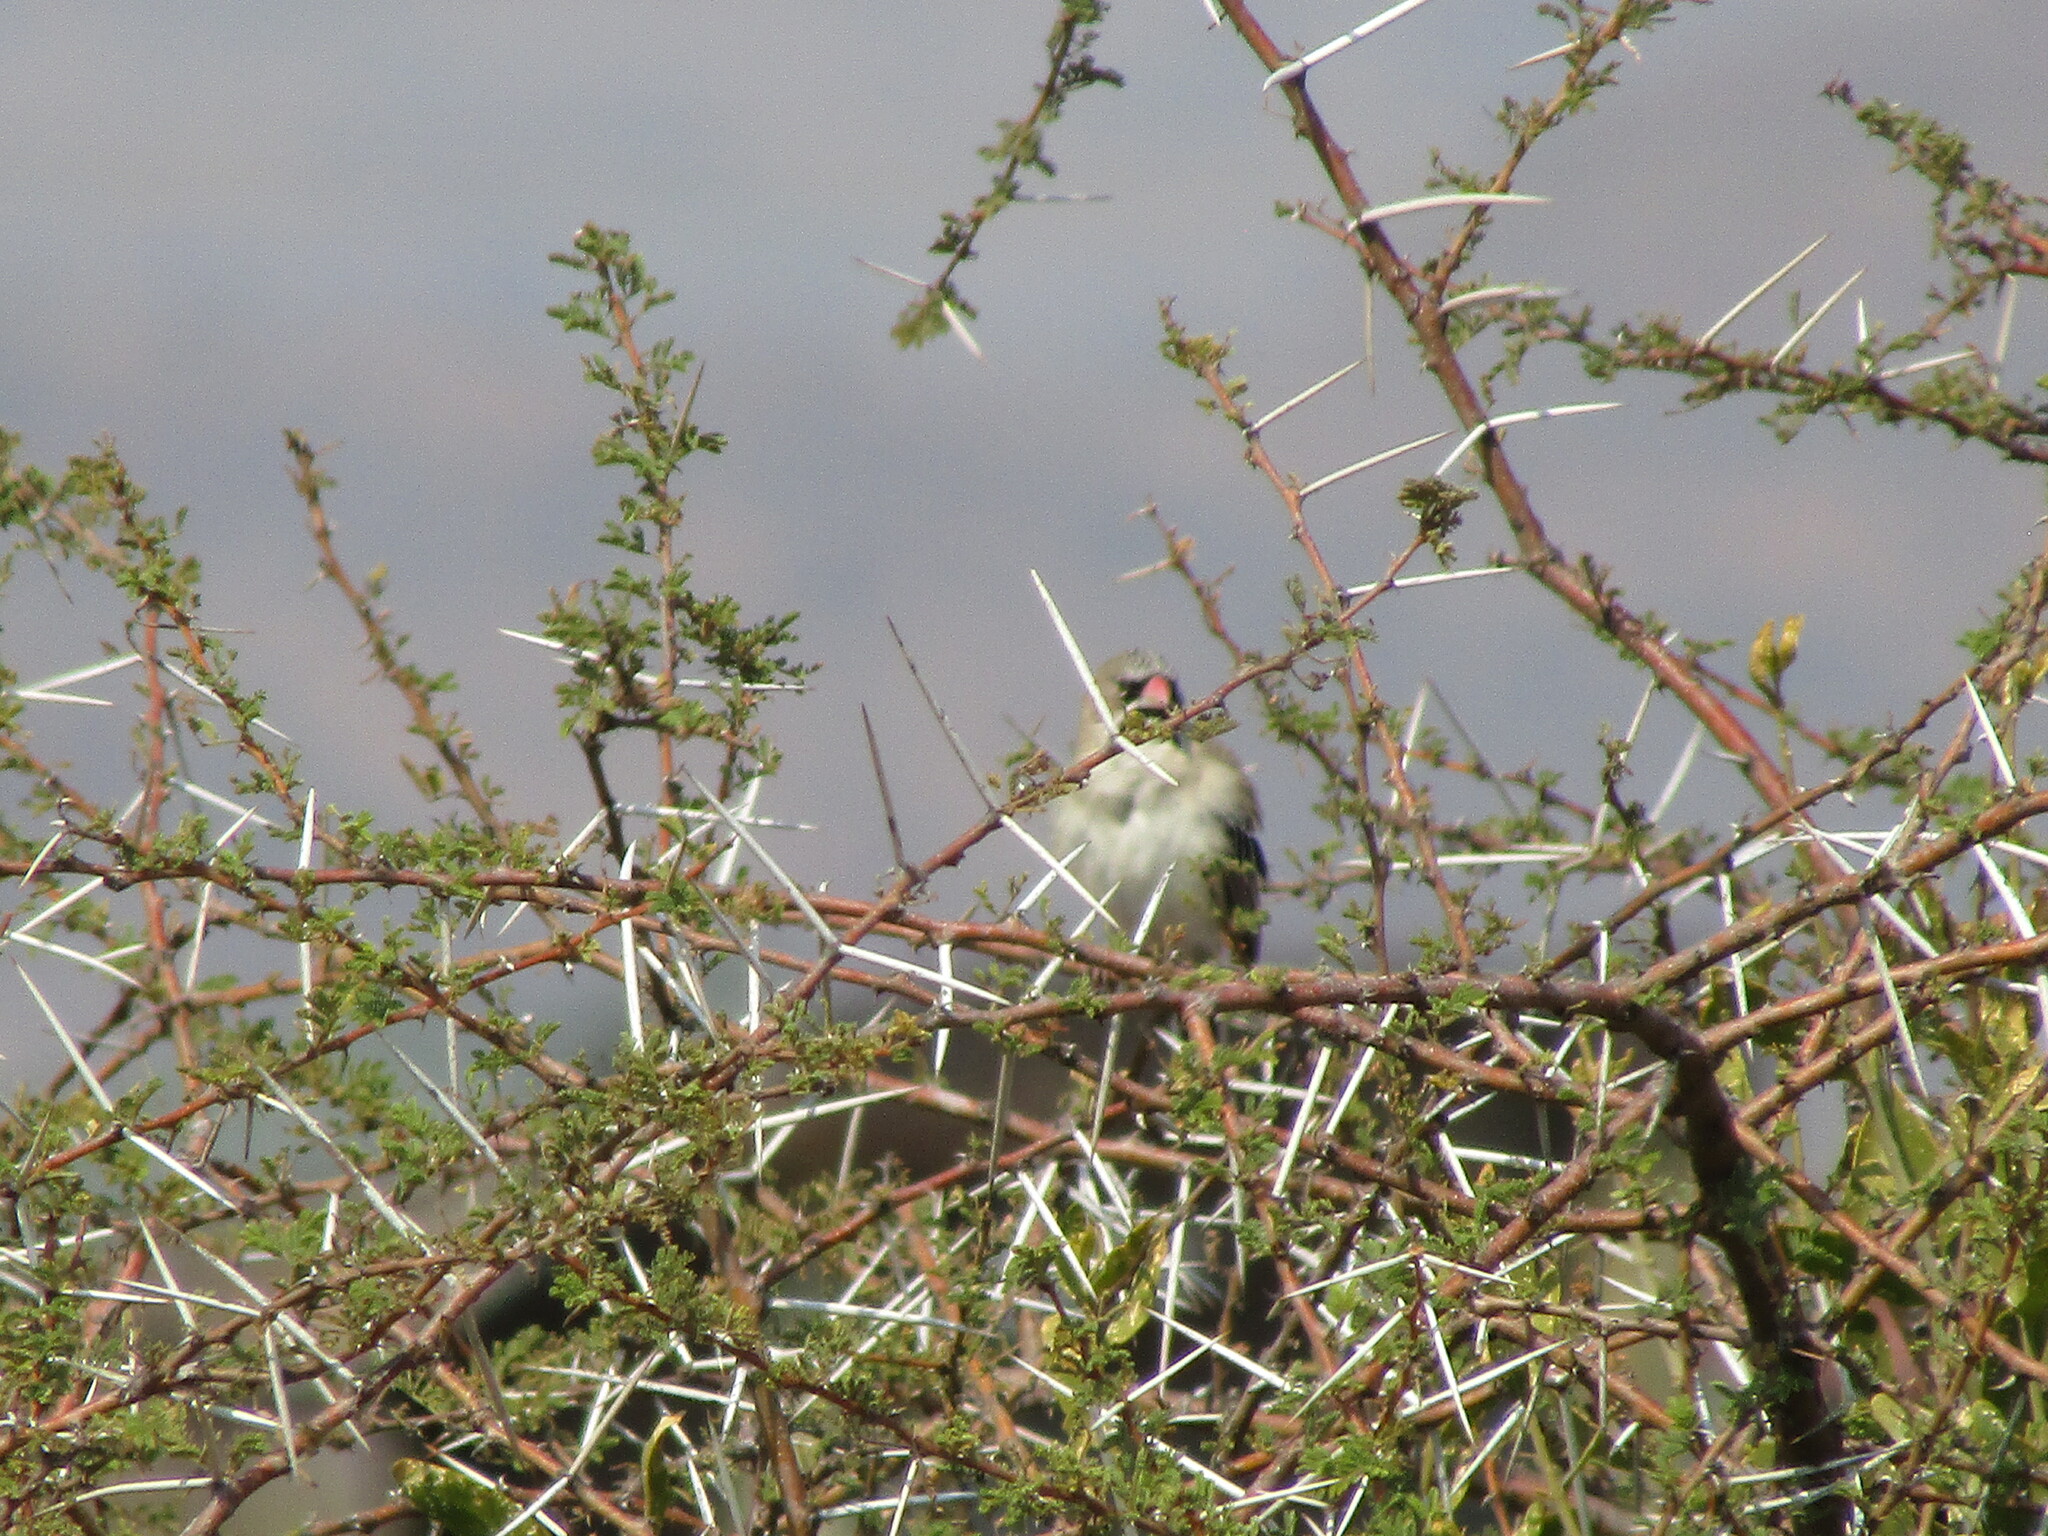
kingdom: Animalia
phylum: Chordata
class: Aves
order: Passeriformes
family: Ploceidae
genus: Sporopipes
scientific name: Sporopipes squamifrons
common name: Scaly-feathered weaver
